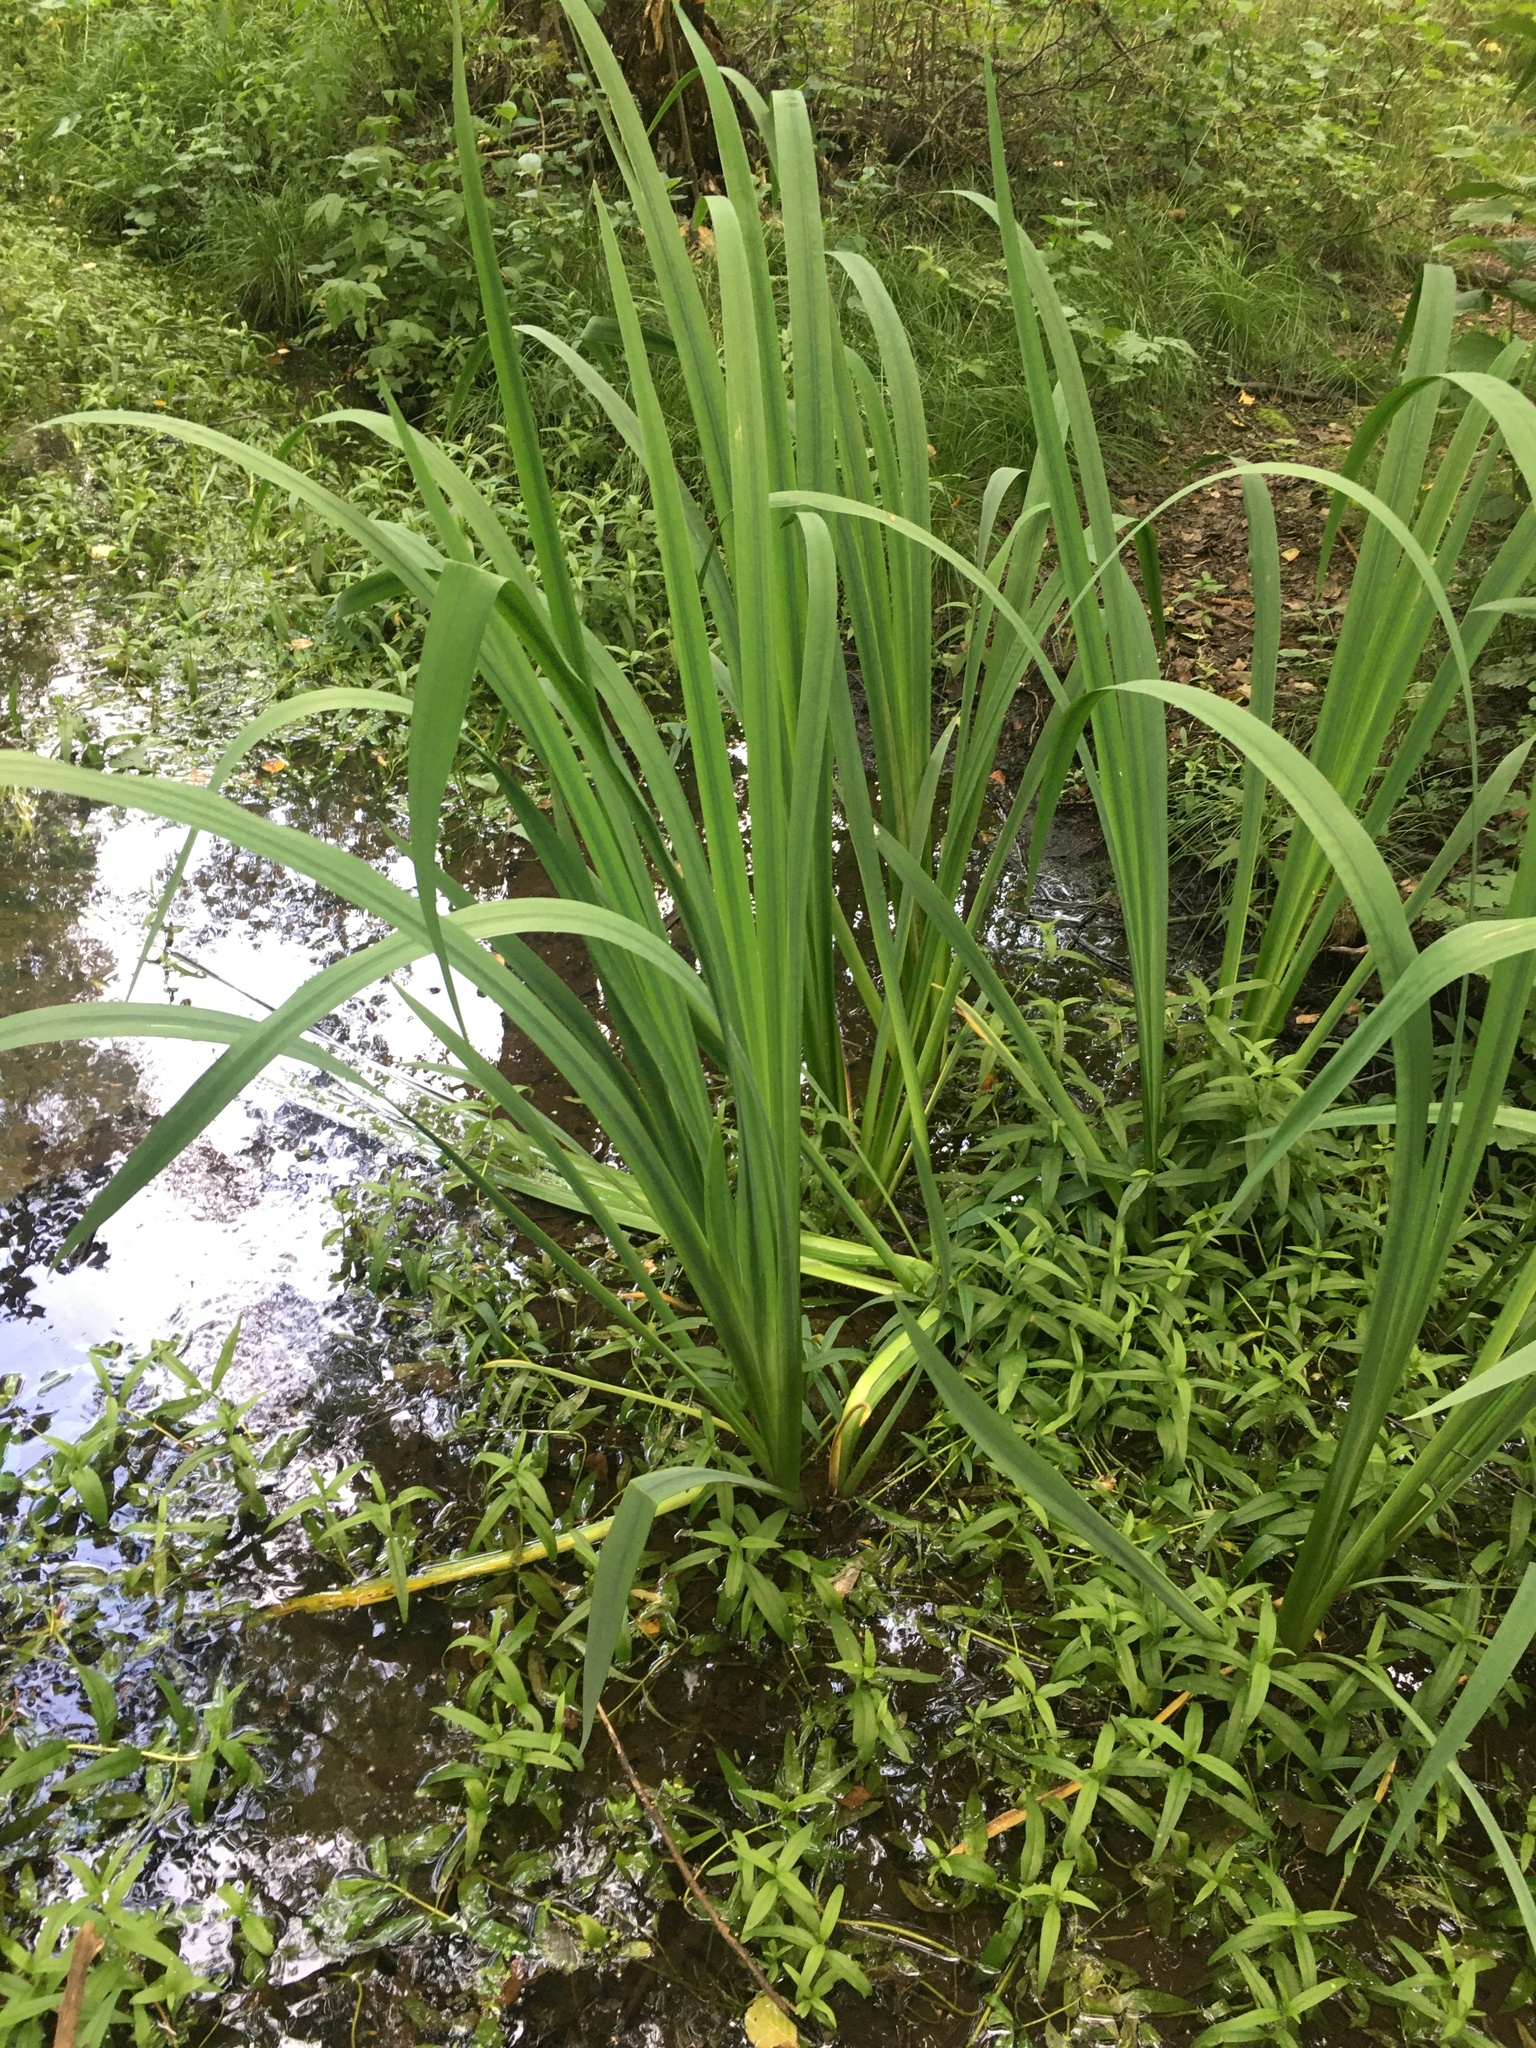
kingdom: Plantae
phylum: Tracheophyta
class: Liliopsida
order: Asparagales
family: Iridaceae
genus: Iris
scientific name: Iris pseudacorus
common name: Yellow flag
